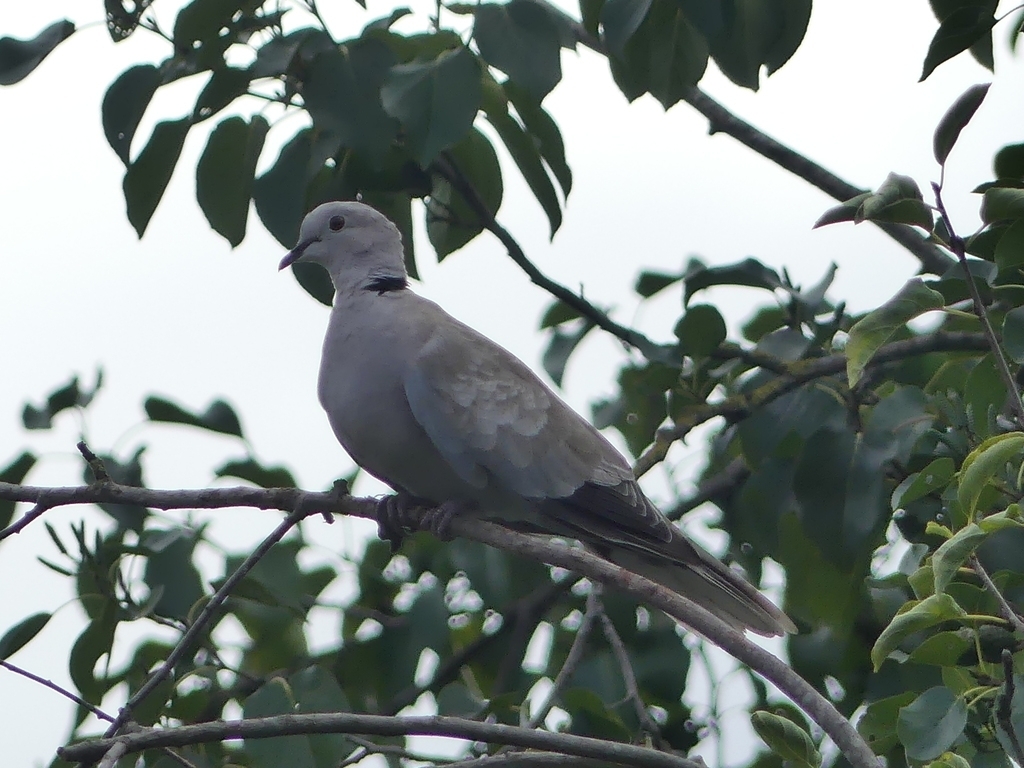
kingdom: Animalia
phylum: Chordata
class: Aves
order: Columbiformes
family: Columbidae
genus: Streptopelia
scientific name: Streptopelia decaocto
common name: Eurasian collared dove
